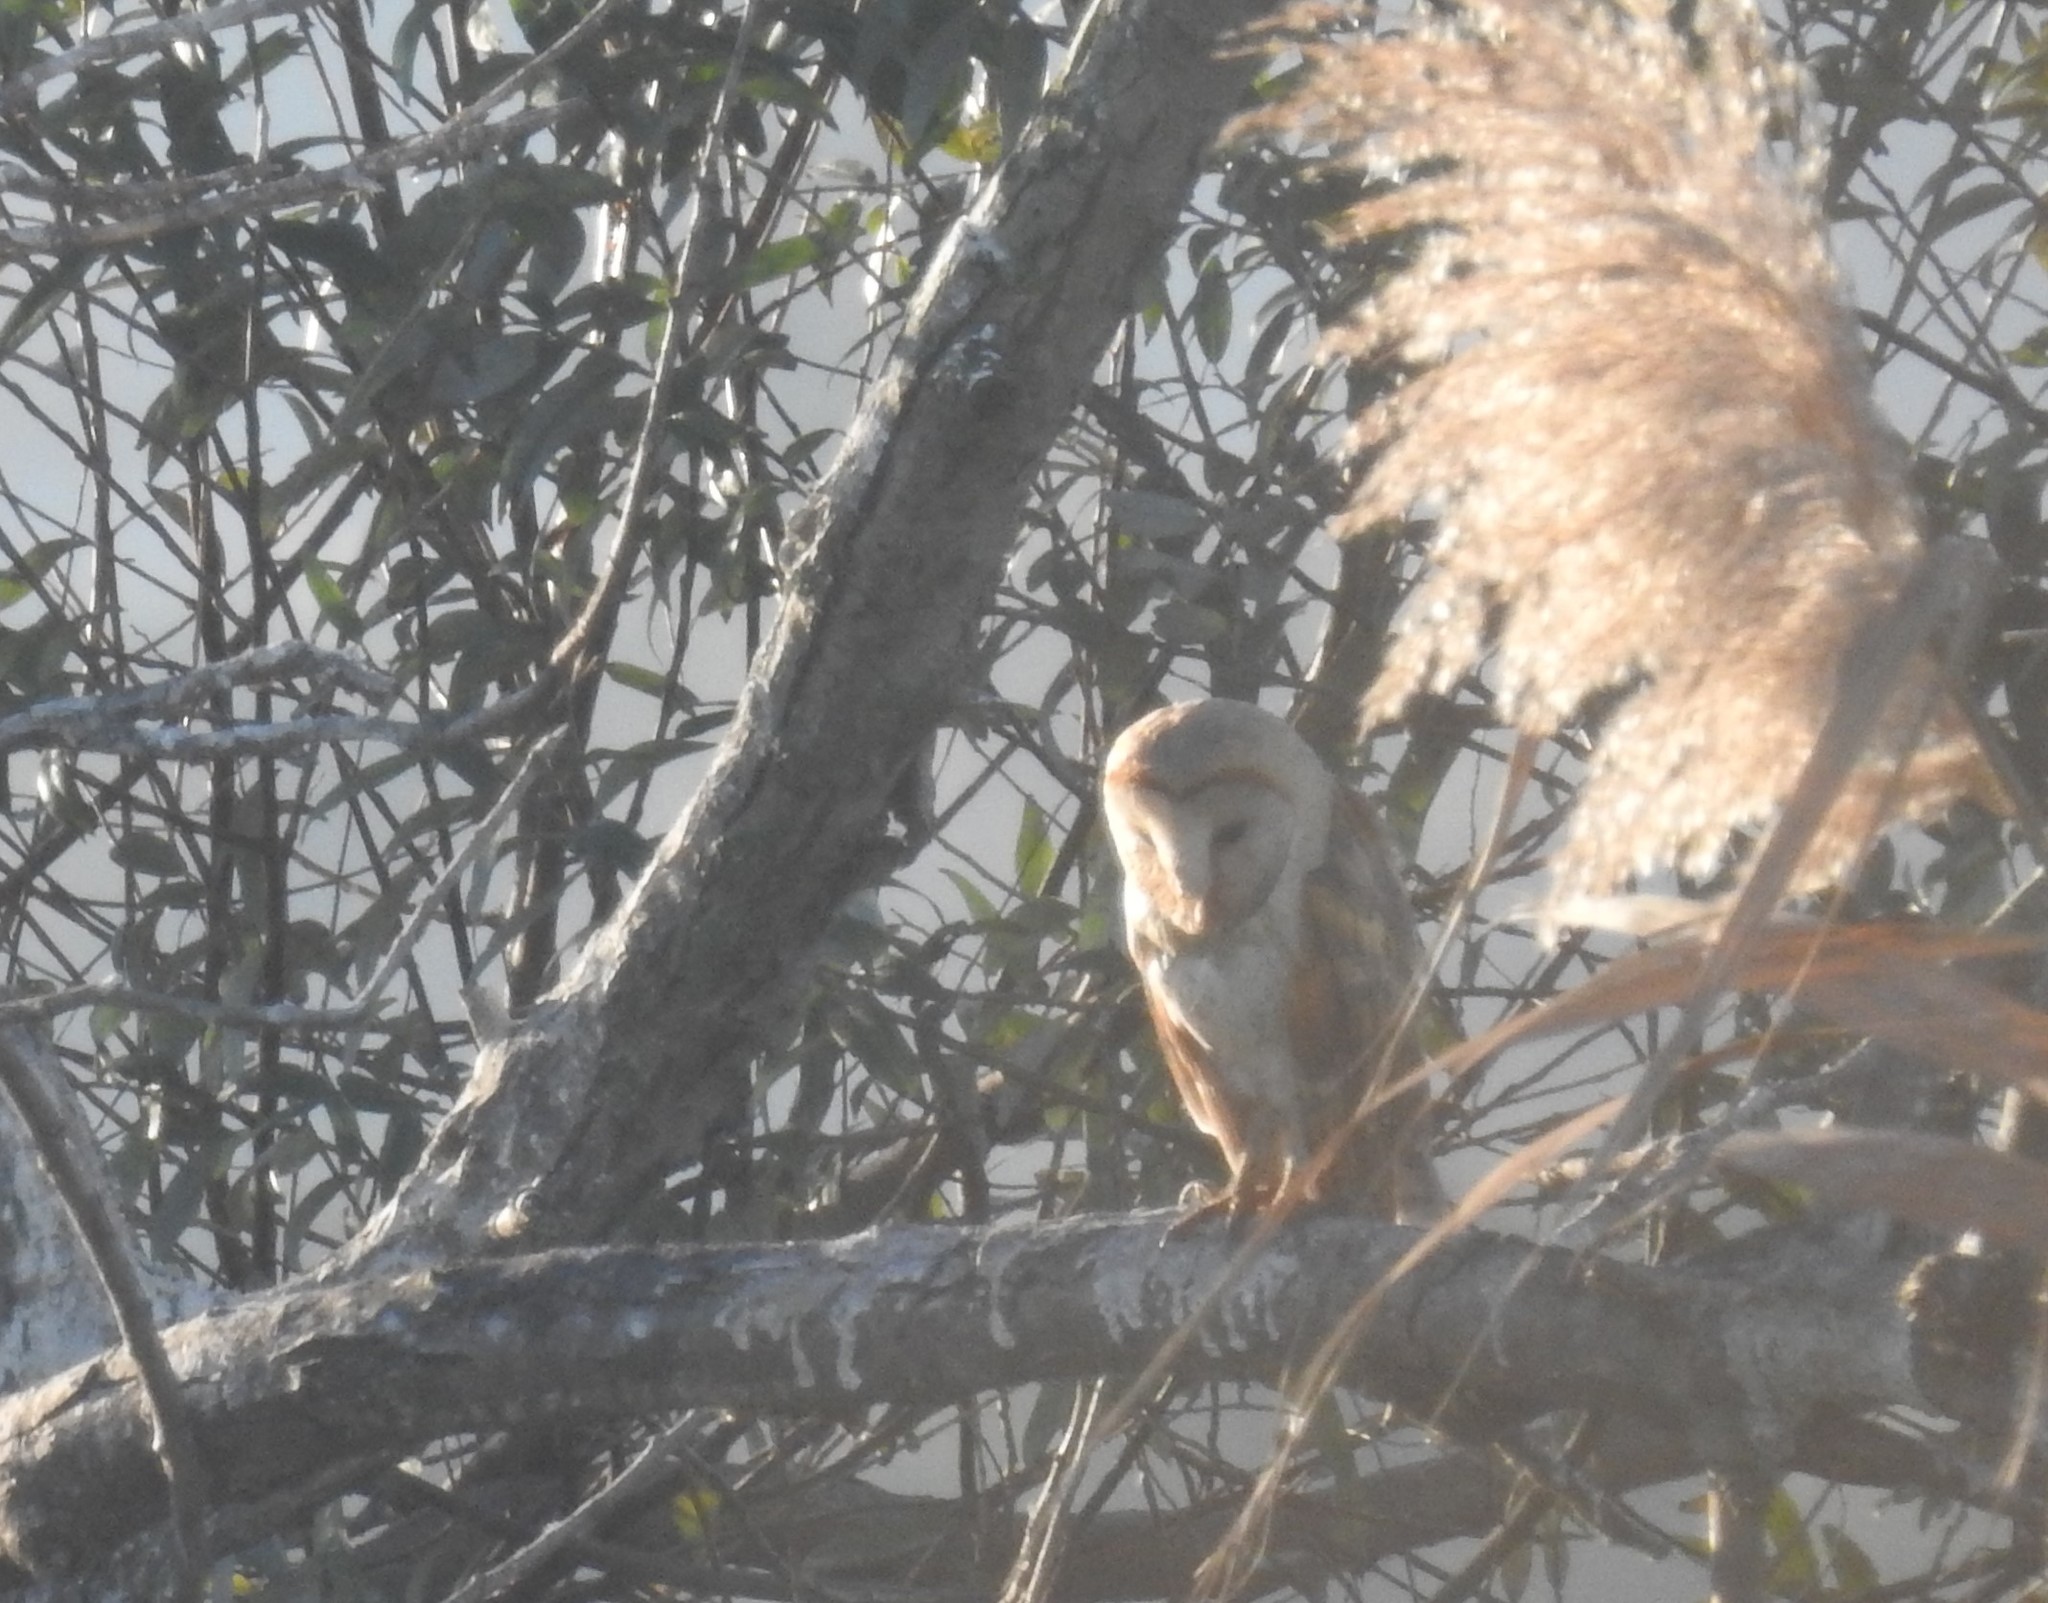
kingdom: Animalia
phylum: Chordata
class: Aves
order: Strigiformes
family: Tytonidae
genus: Tyto
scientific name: Tyto alba
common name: Barn owl
